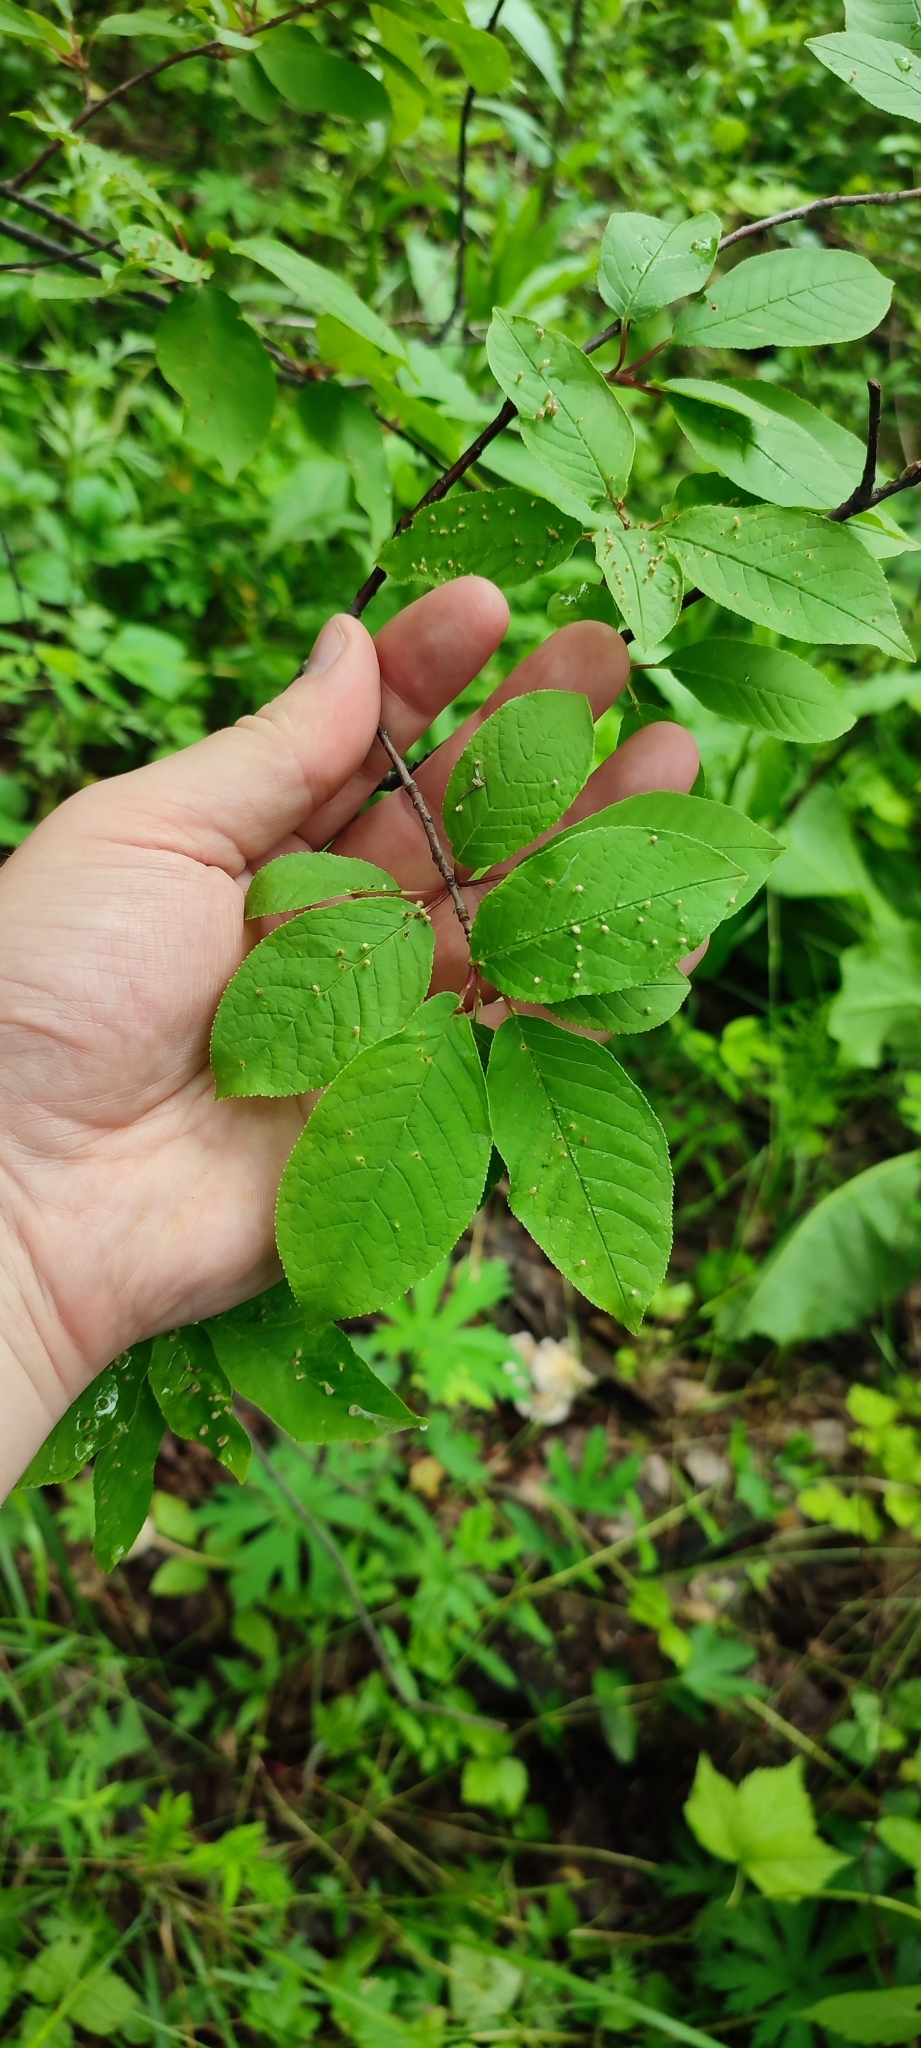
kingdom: Plantae
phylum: Tracheophyta
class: Magnoliopsida
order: Rosales
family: Rosaceae
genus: Prunus
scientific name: Prunus padus
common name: Bird cherry
